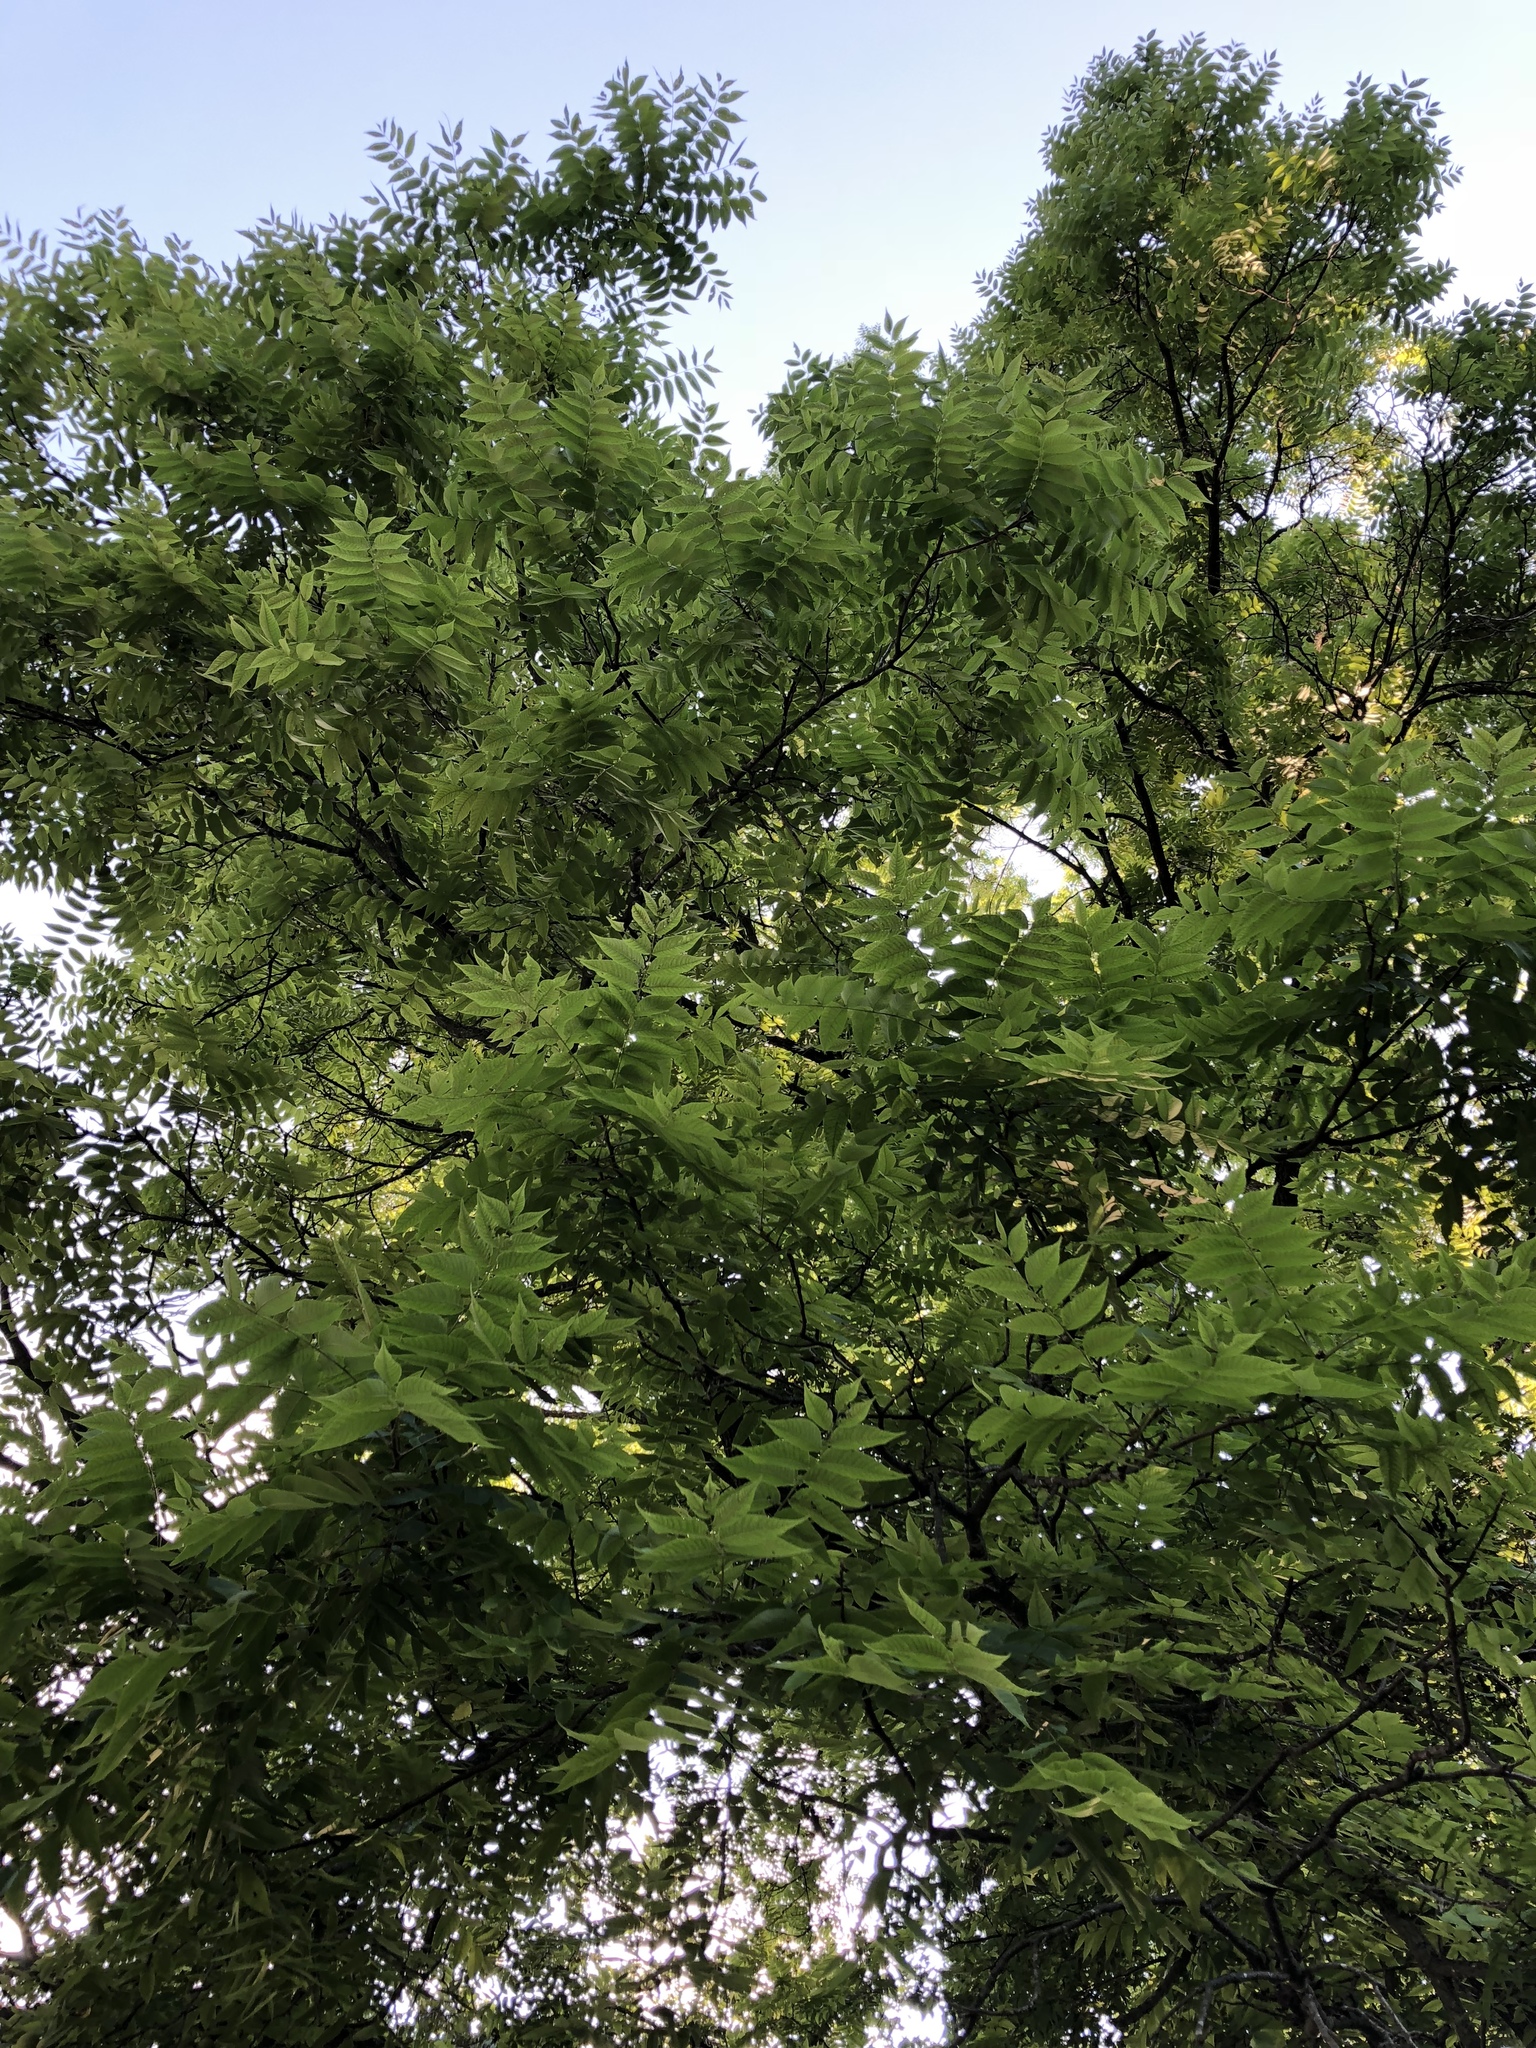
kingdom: Plantae
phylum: Tracheophyta
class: Magnoliopsida
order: Fagales
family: Juglandaceae
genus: Juglans
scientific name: Juglans nigra
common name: Black walnut
